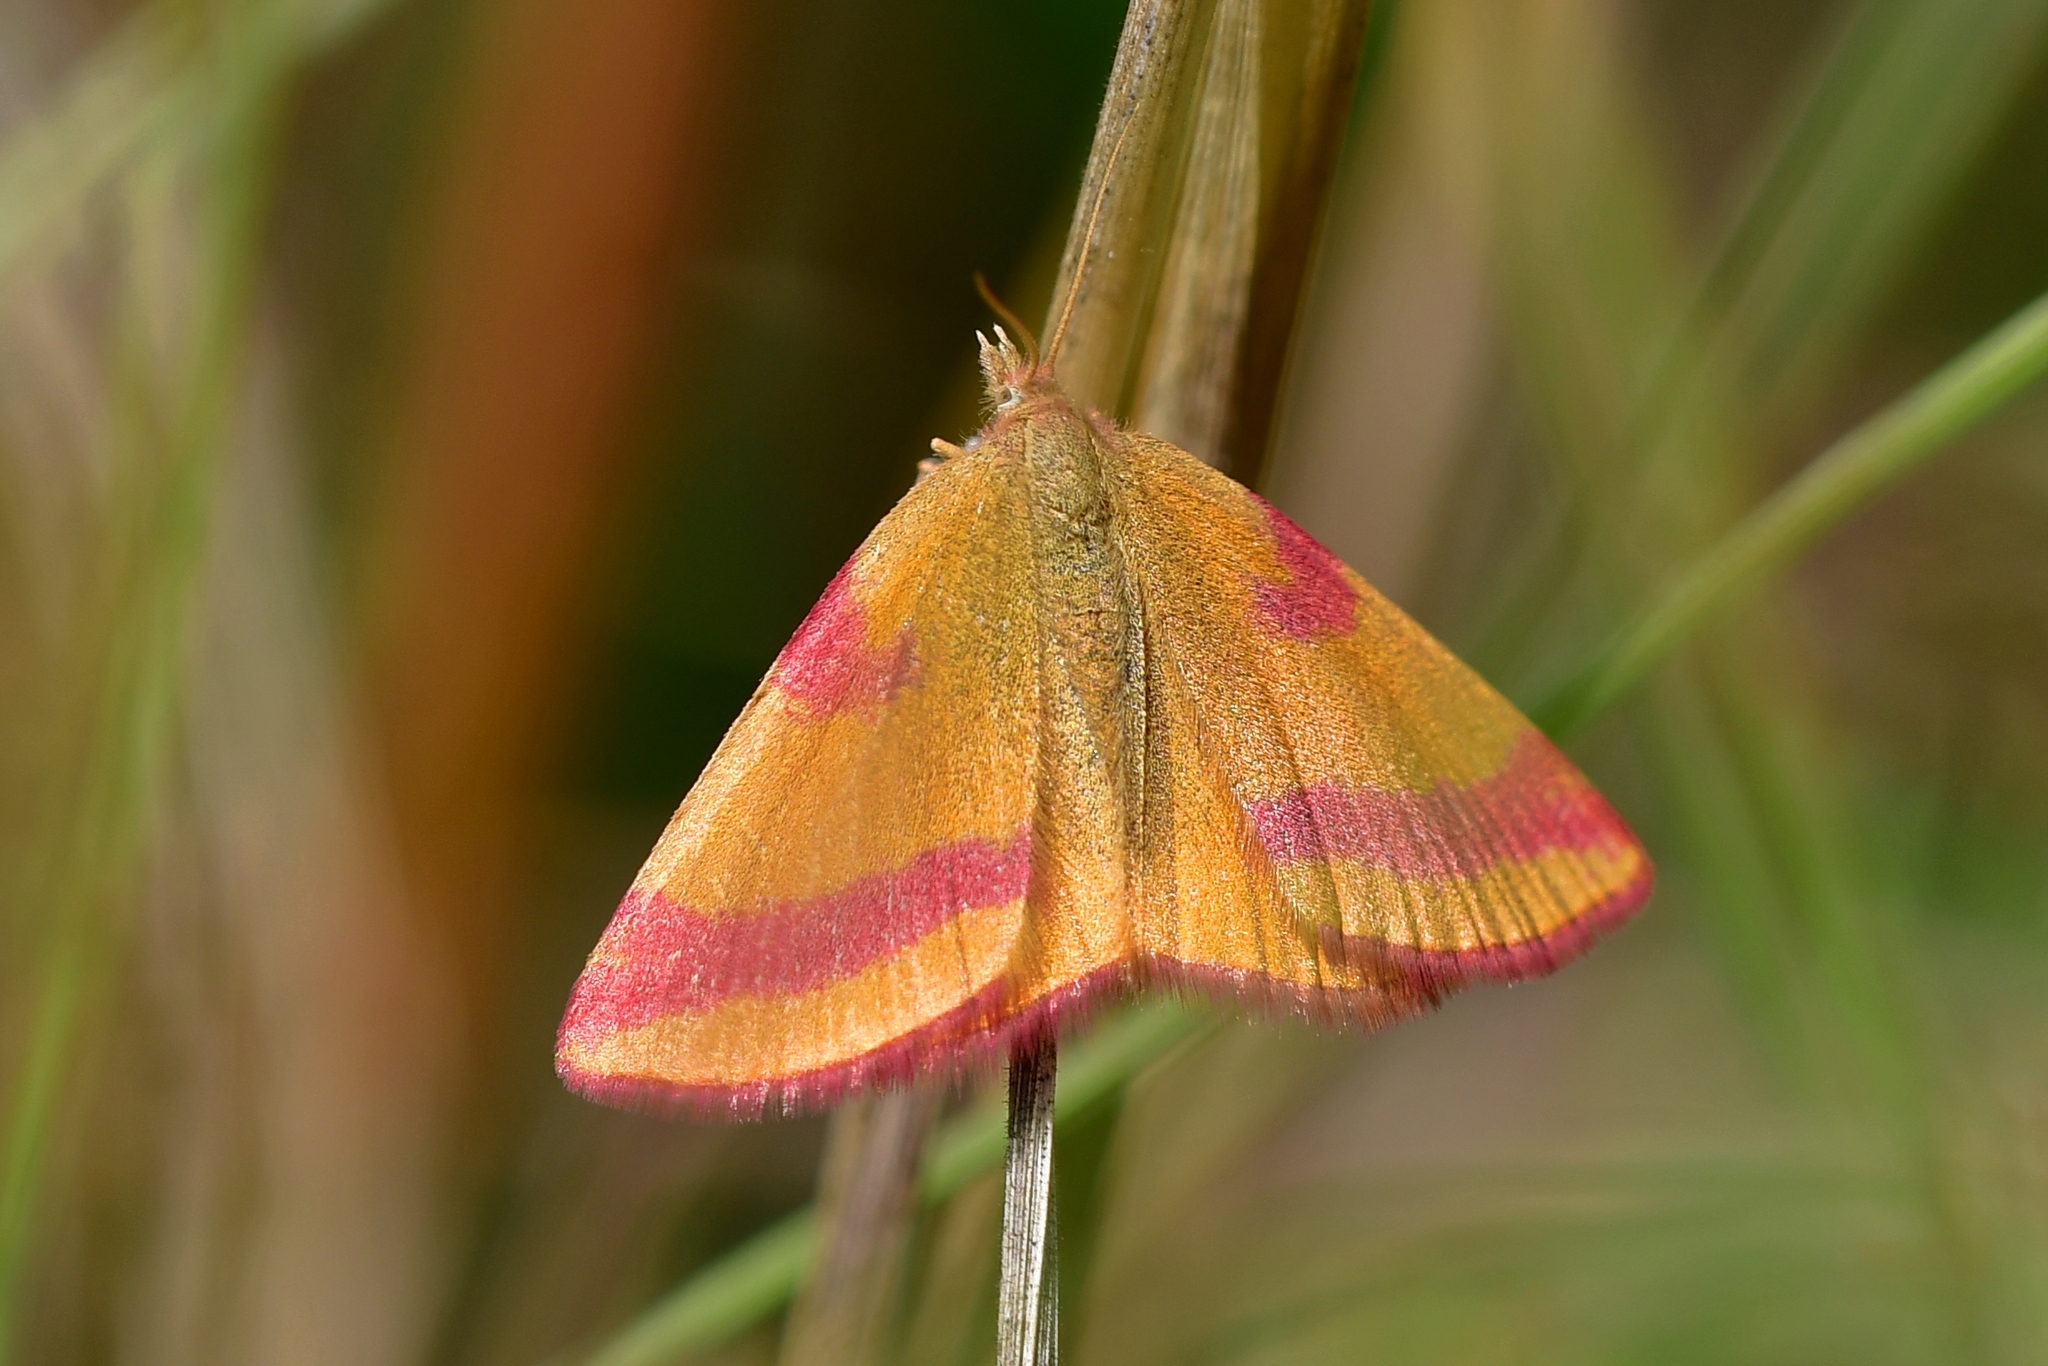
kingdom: Animalia
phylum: Arthropoda
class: Insecta
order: Lepidoptera
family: Geometridae
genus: Lythria
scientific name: Lythria cruentaria
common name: Purple-barred yellow
